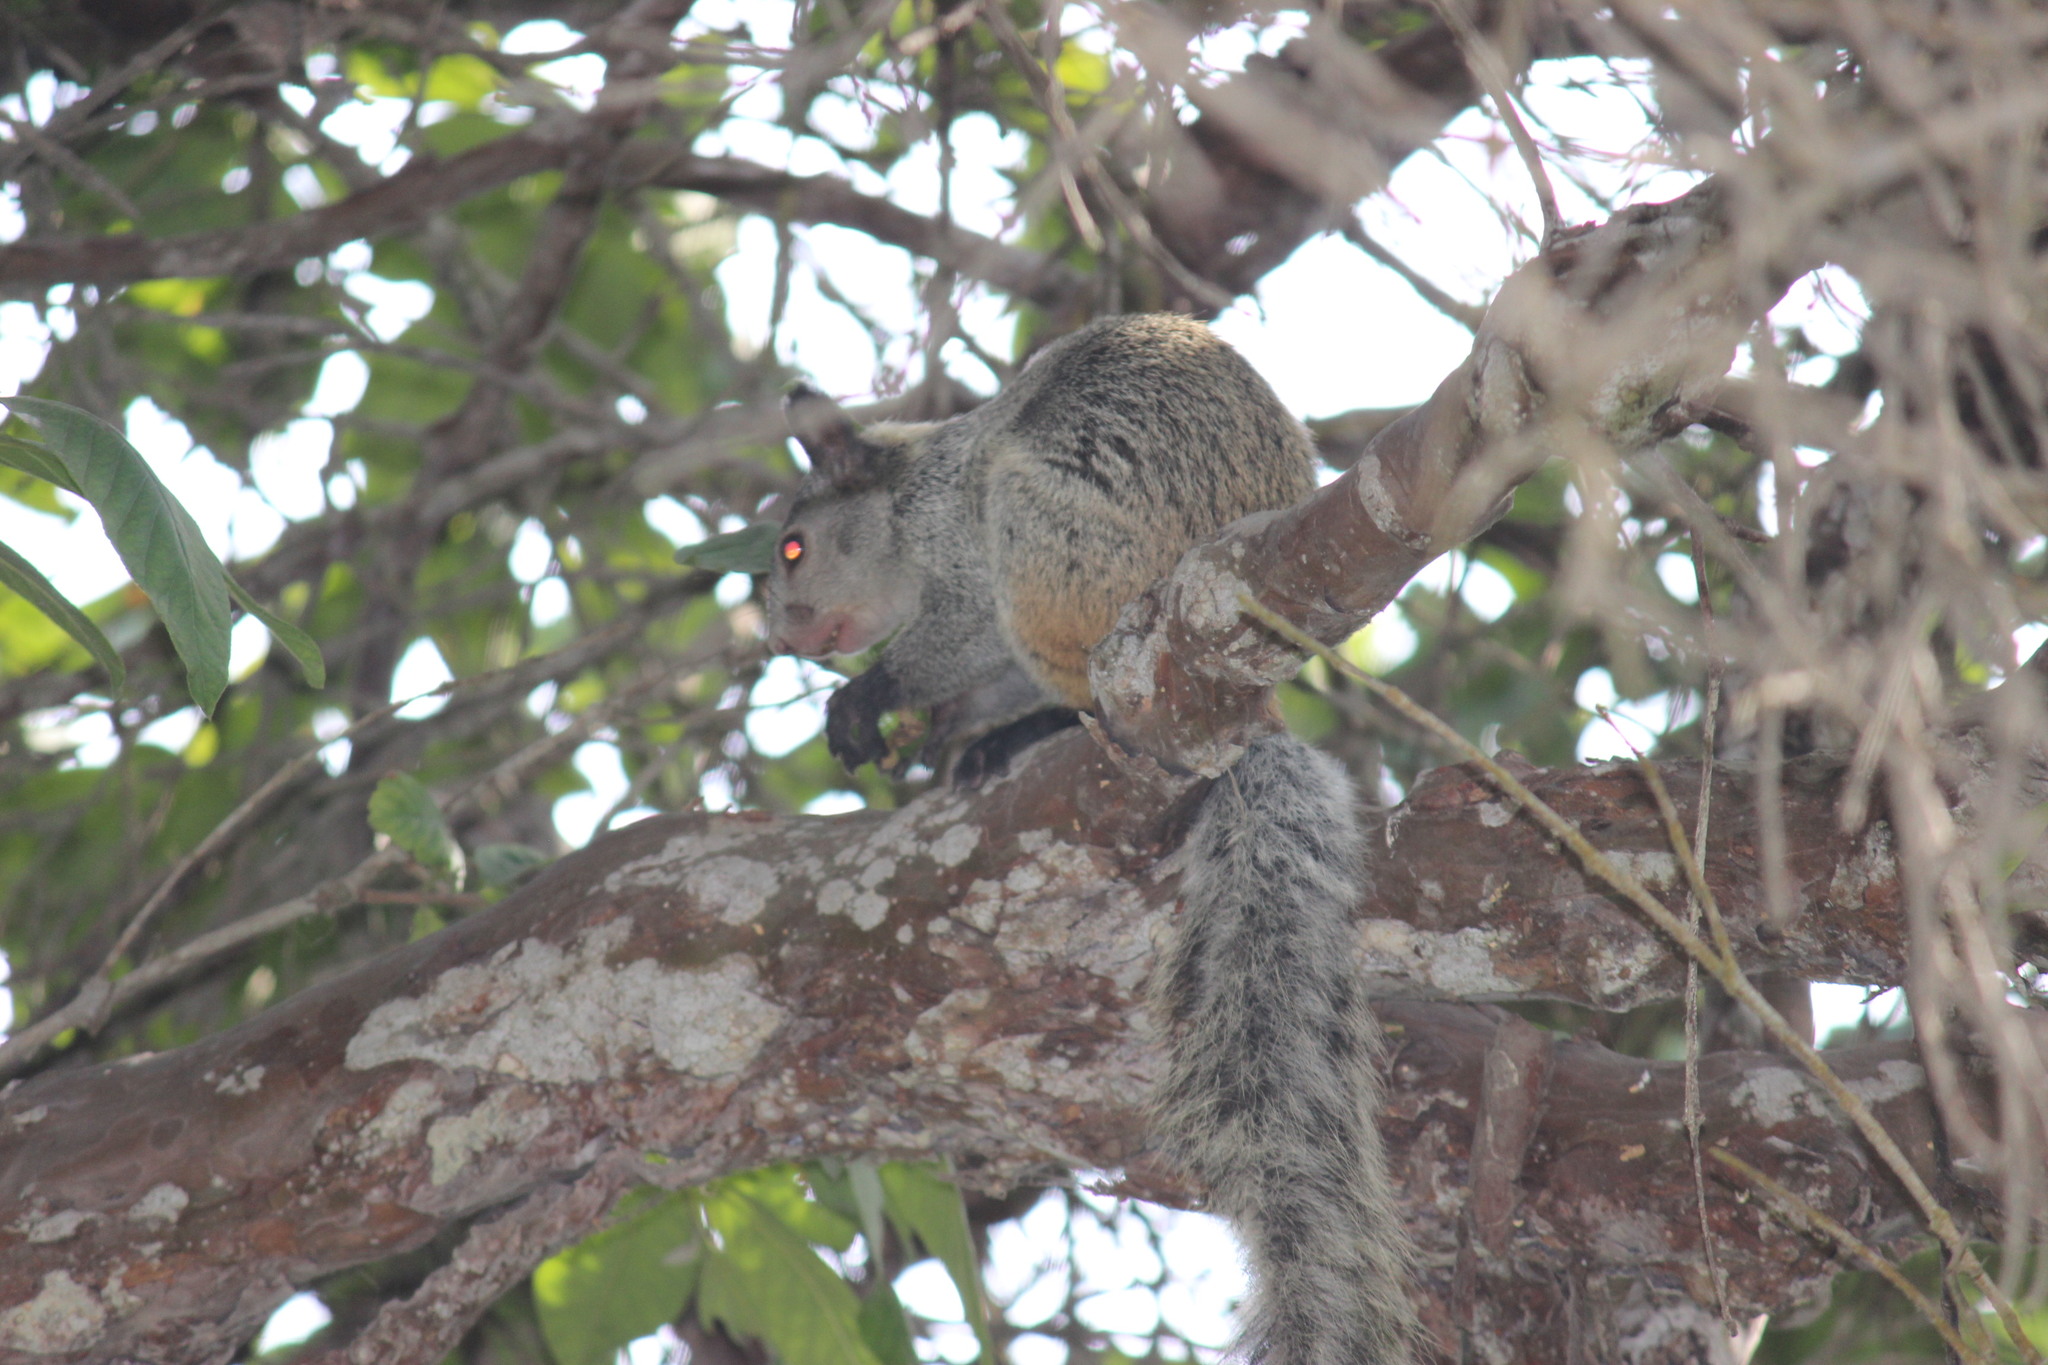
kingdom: Animalia
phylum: Chordata
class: Mammalia
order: Rodentia
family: Sciuridae
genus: Sciurus
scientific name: Sciurus stramineus
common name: Guayaquil squirrel
